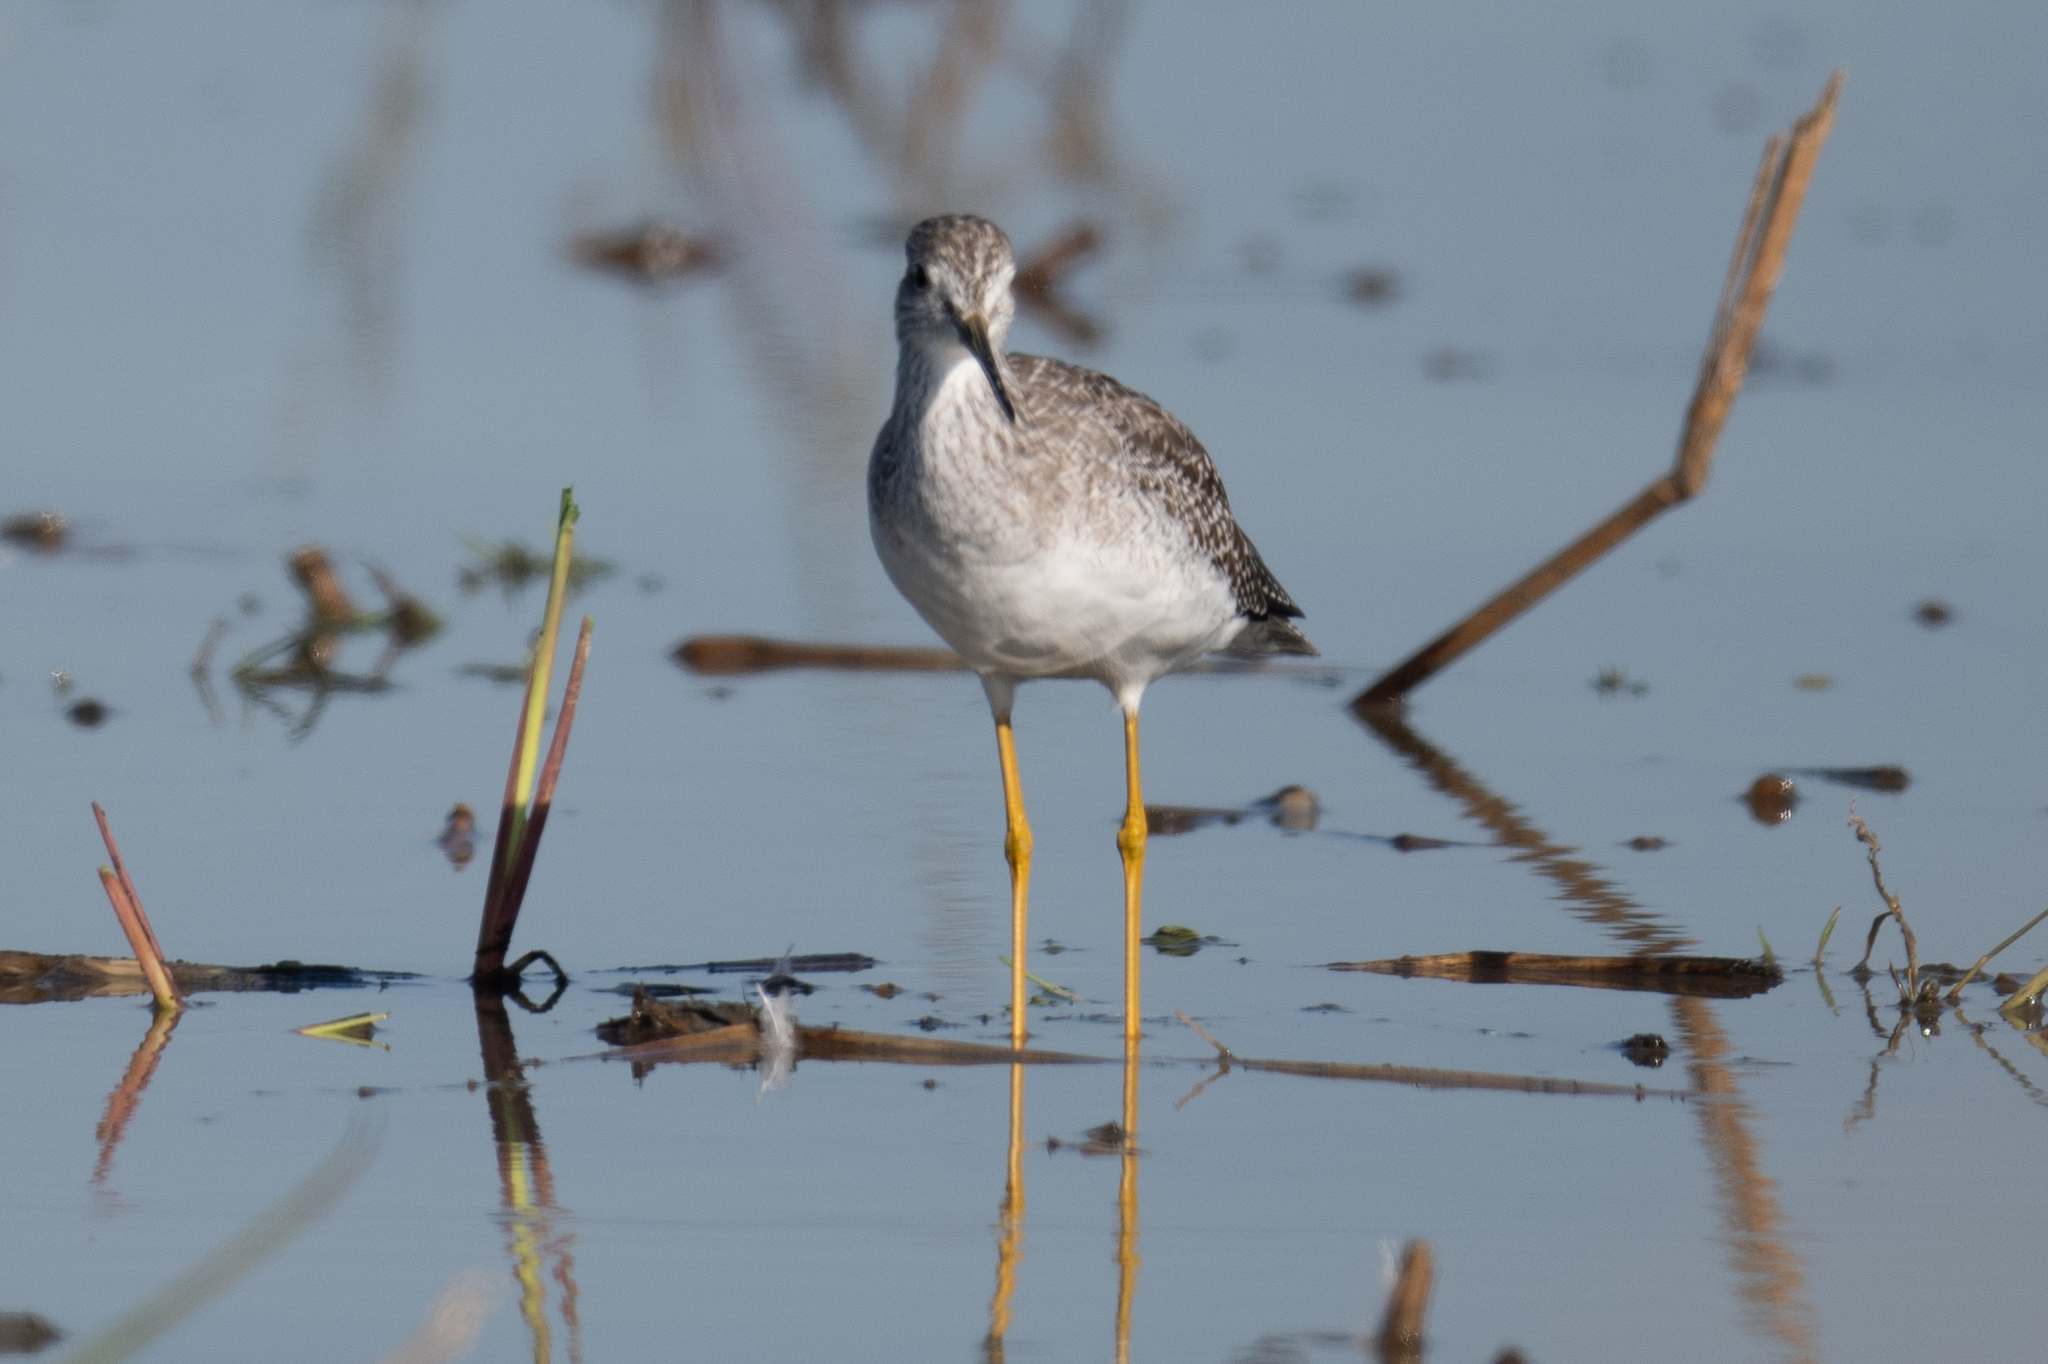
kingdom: Animalia
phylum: Chordata
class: Aves
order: Charadriiformes
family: Scolopacidae
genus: Tringa
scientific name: Tringa melanoleuca
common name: Greater yellowlegs
